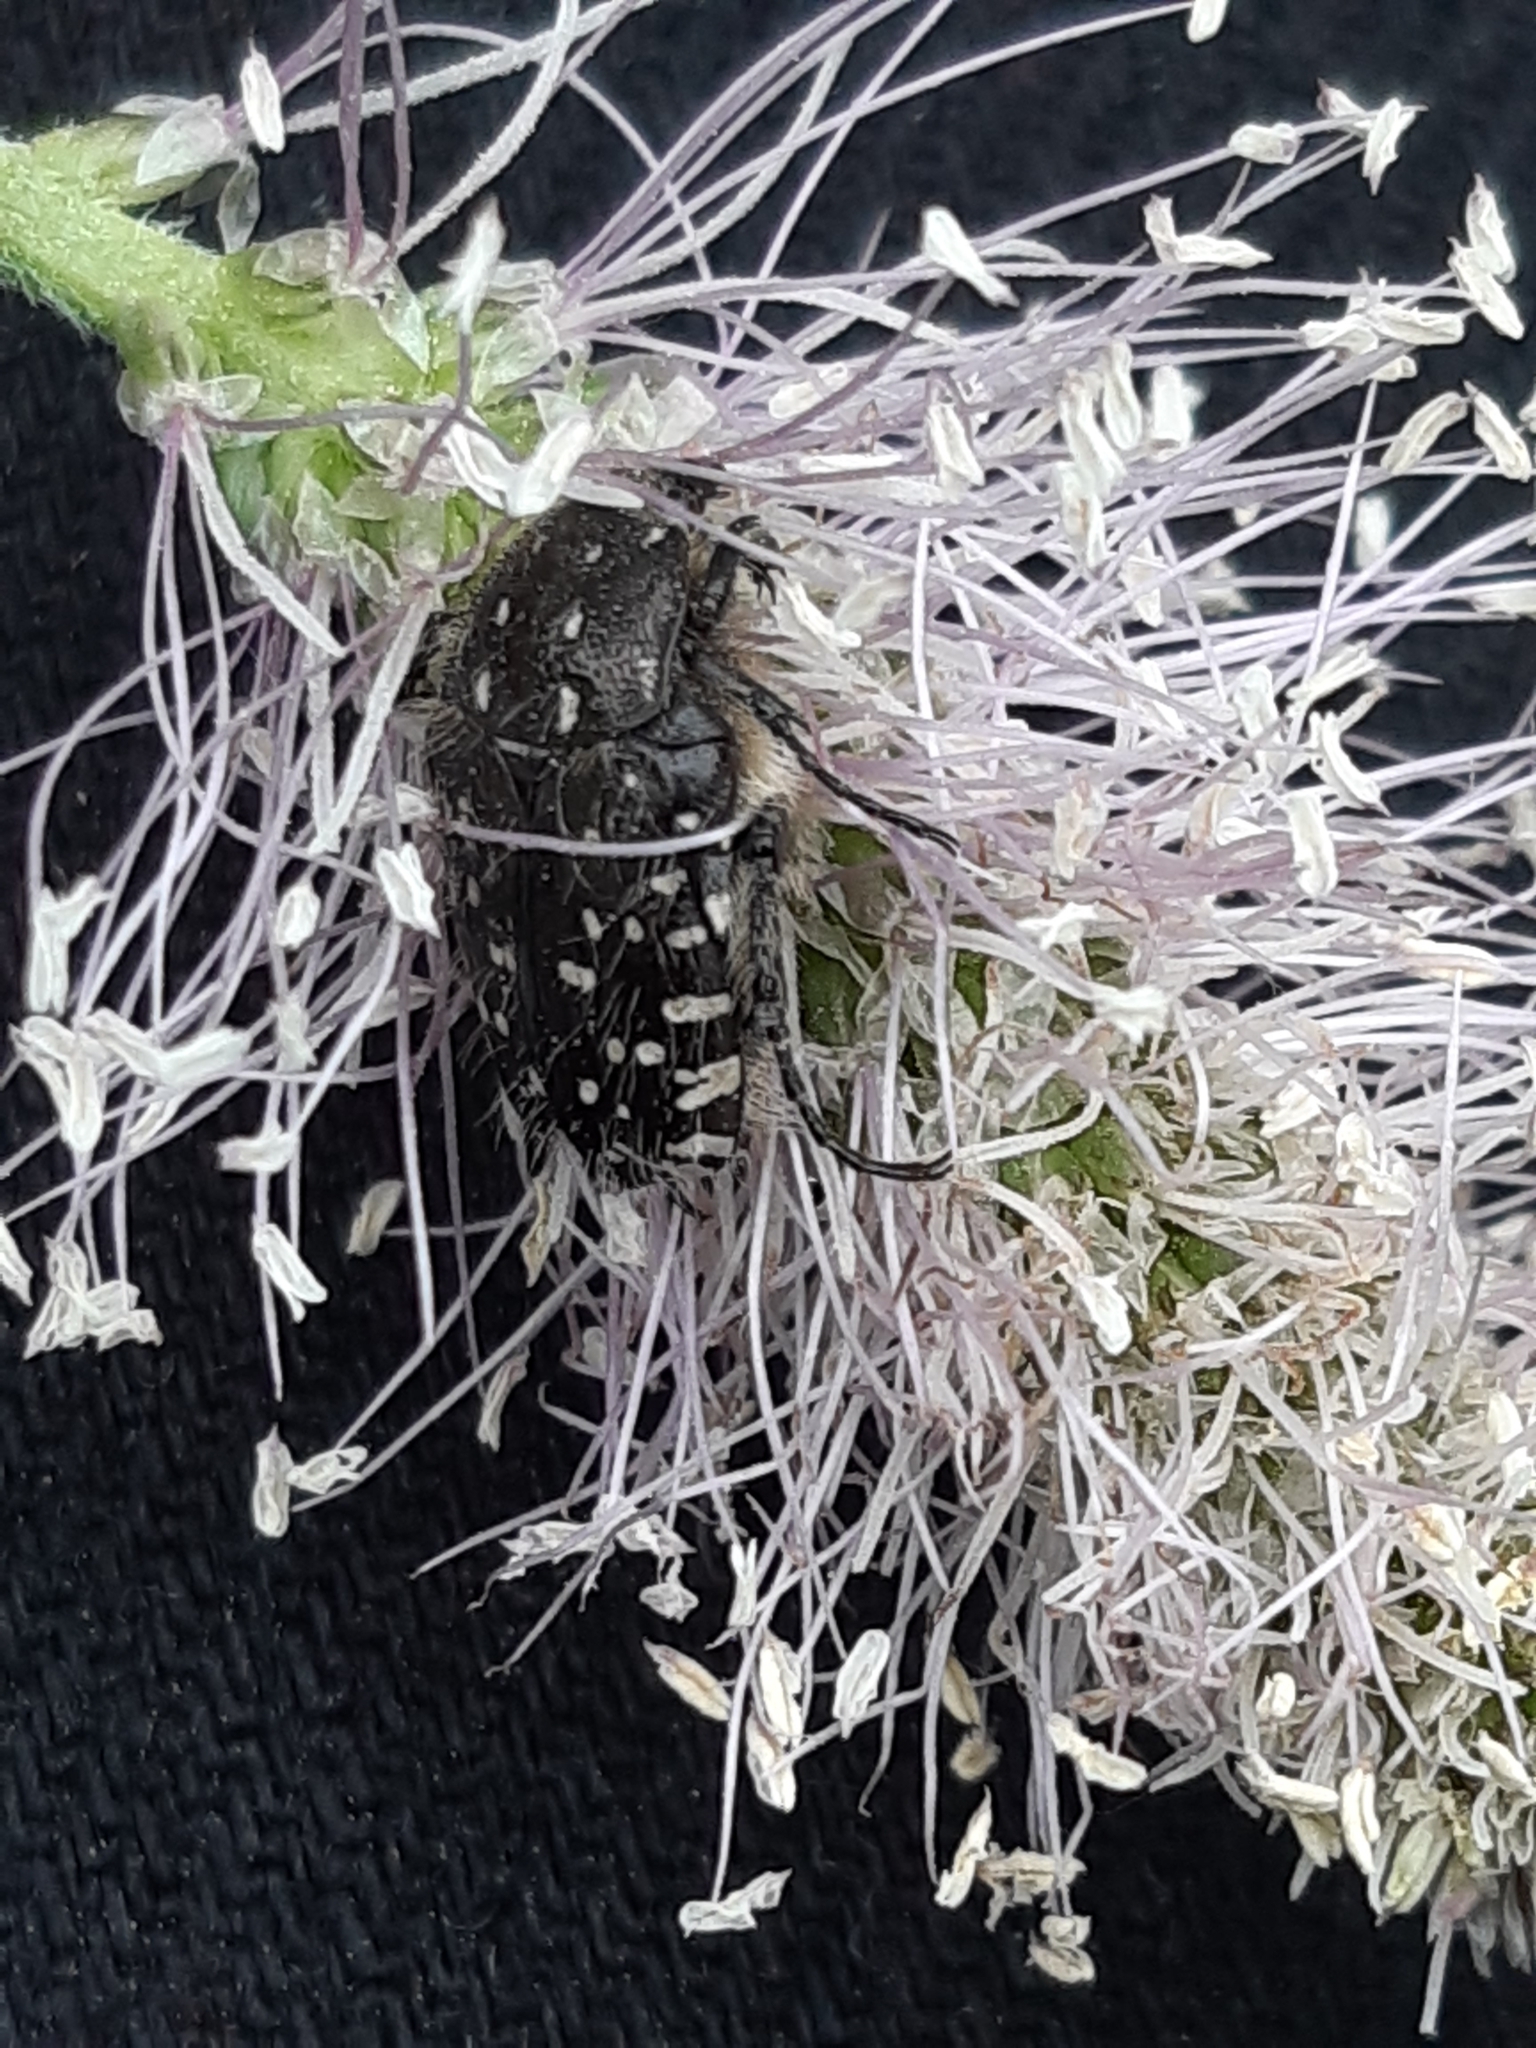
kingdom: Animalia
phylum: Arthropoda
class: Insecta
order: Coleoptera
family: Scarabaeidae
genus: Oxythyrea
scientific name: Oxythyrea funesta
